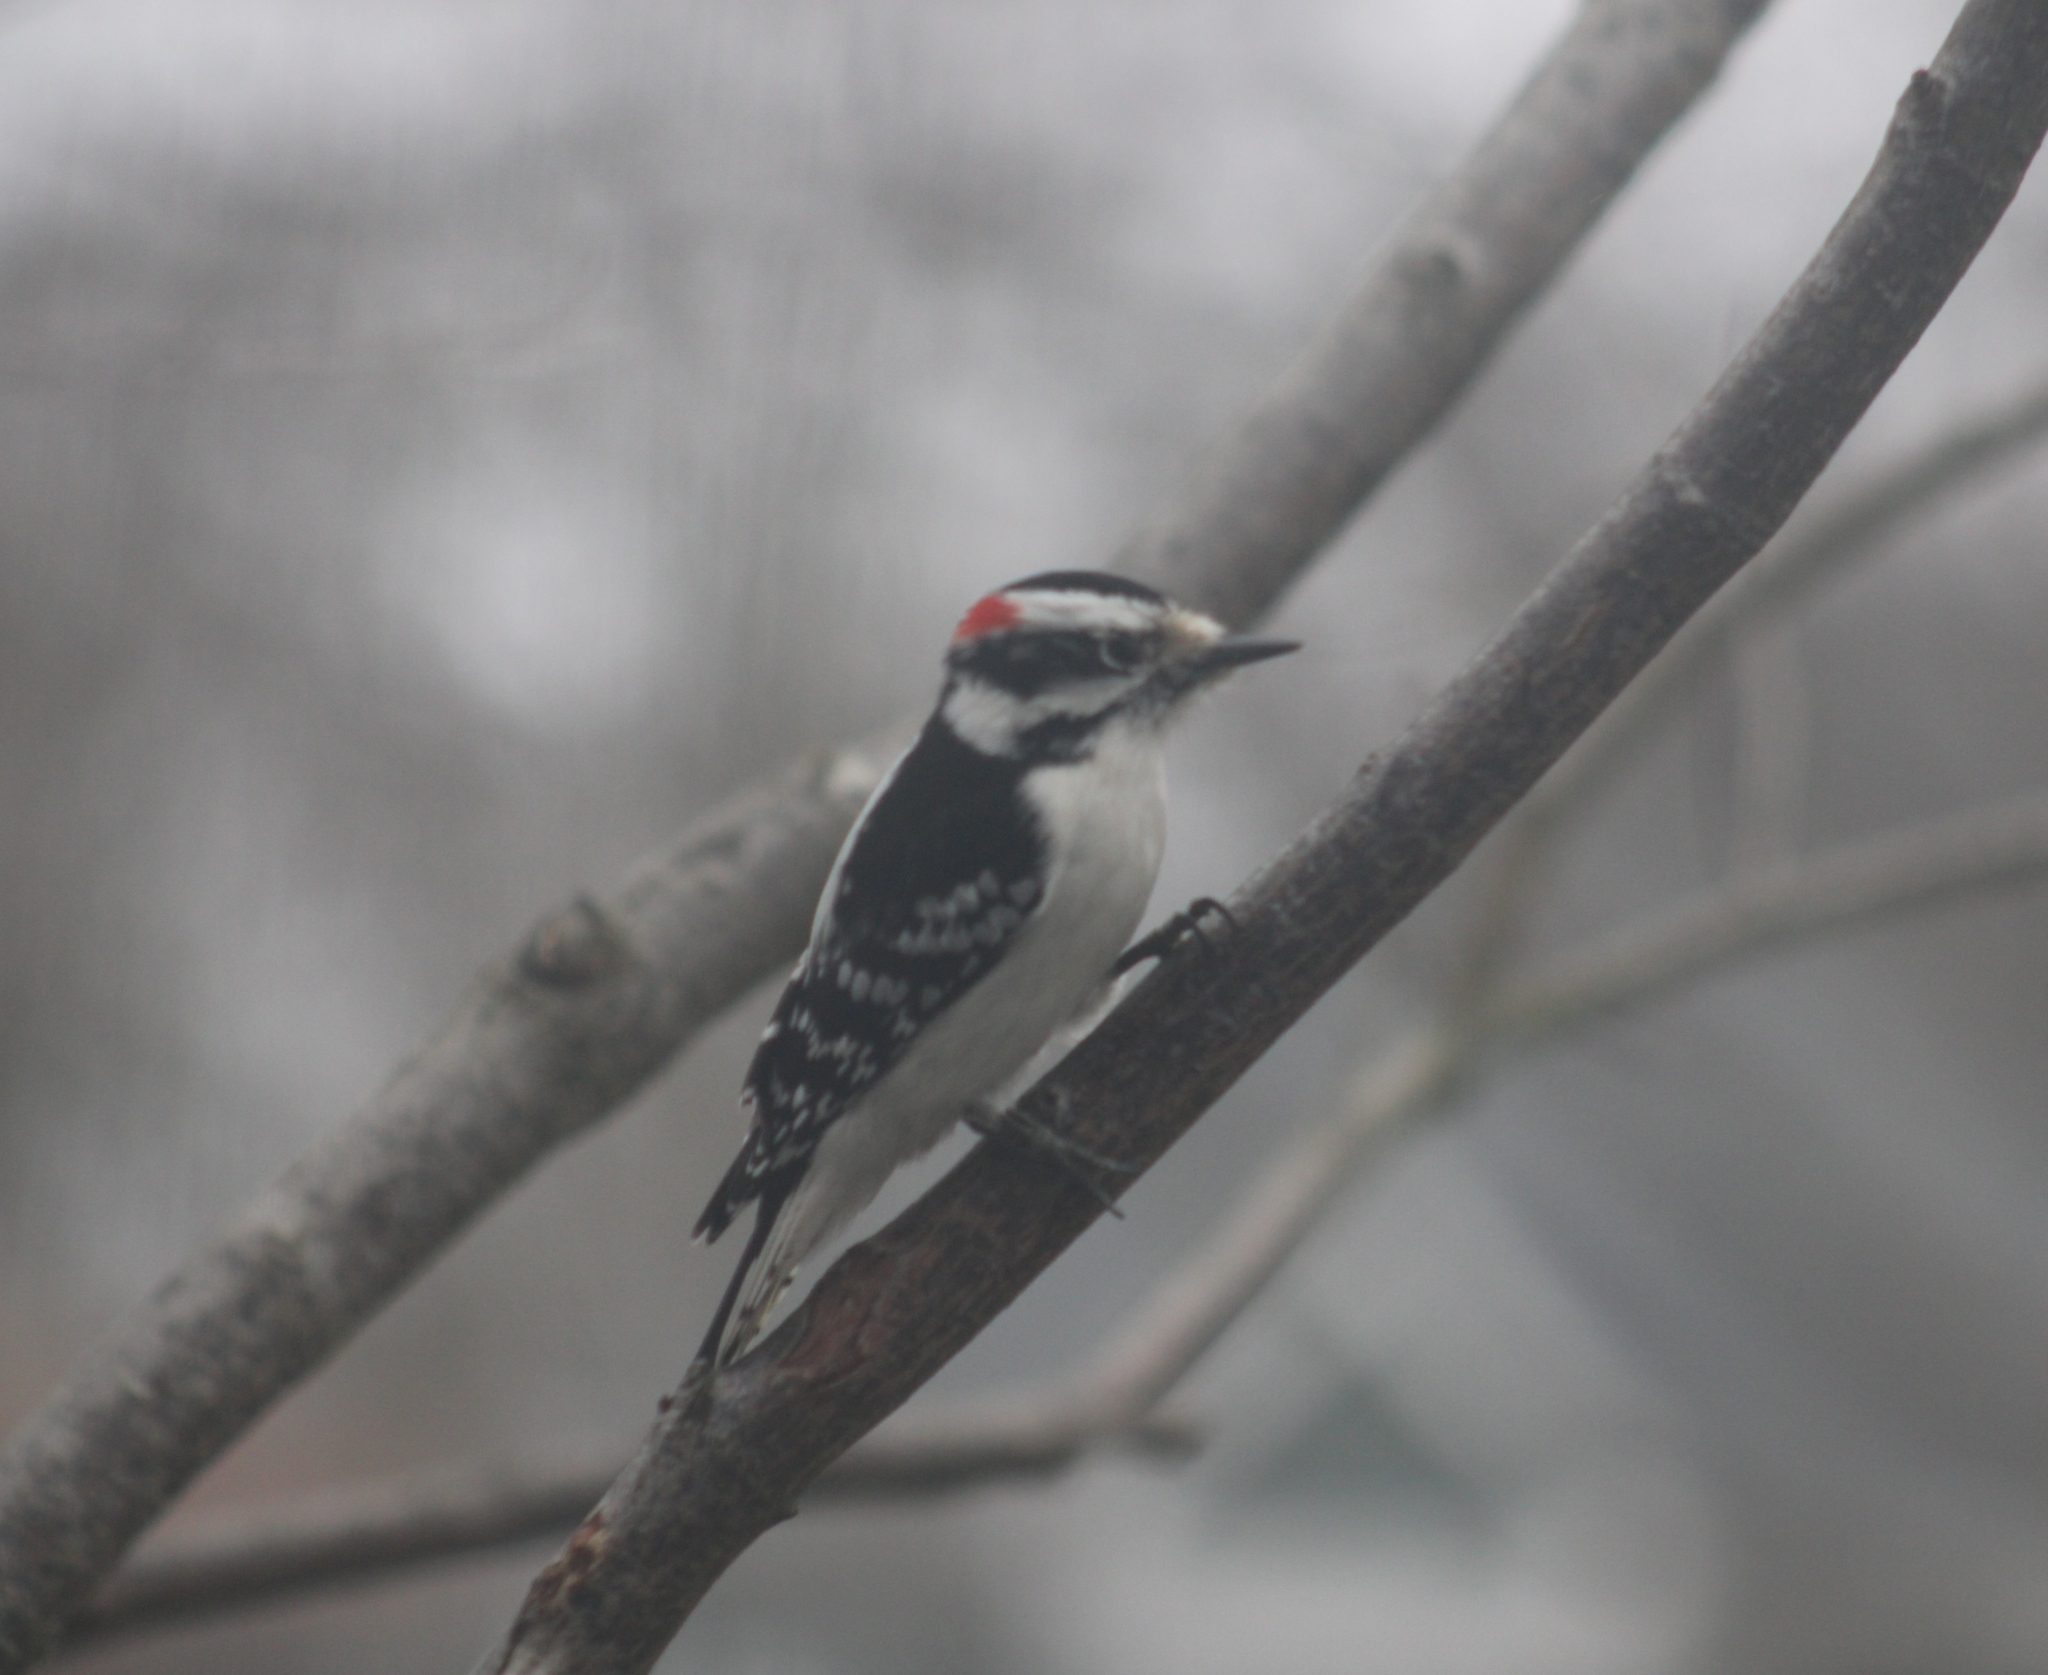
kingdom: Animalia
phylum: Chordata
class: Aves
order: Piciformes
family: Picidae
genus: Dryobates
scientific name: Dryobates pubescens
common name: Downy woodpecker
